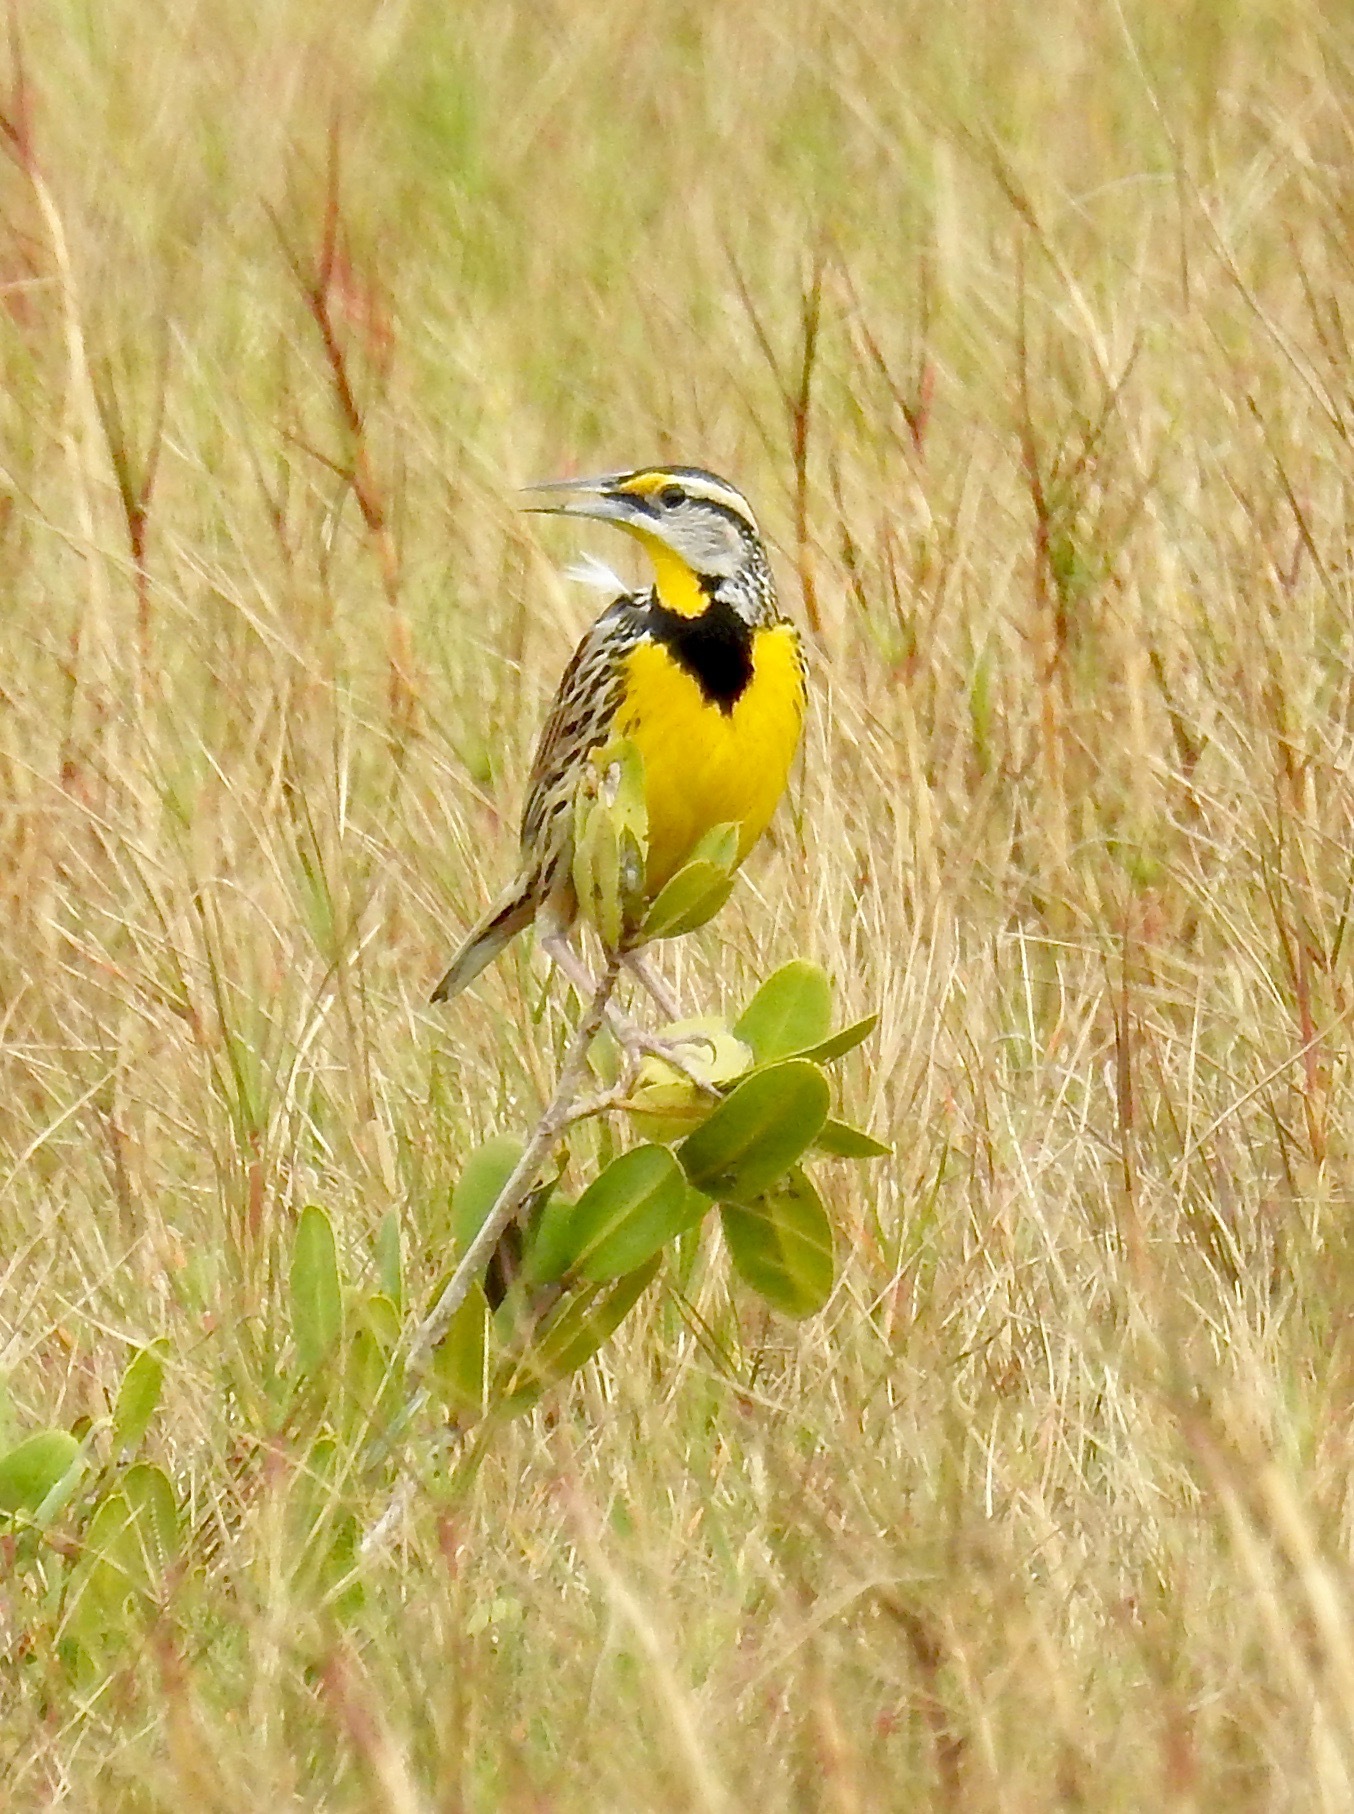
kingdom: Animalia
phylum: Chordata
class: Aves
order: Passeriformes
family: Icteridae
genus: Sturnella
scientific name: Sturnella magna
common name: Eastern meadowlark
